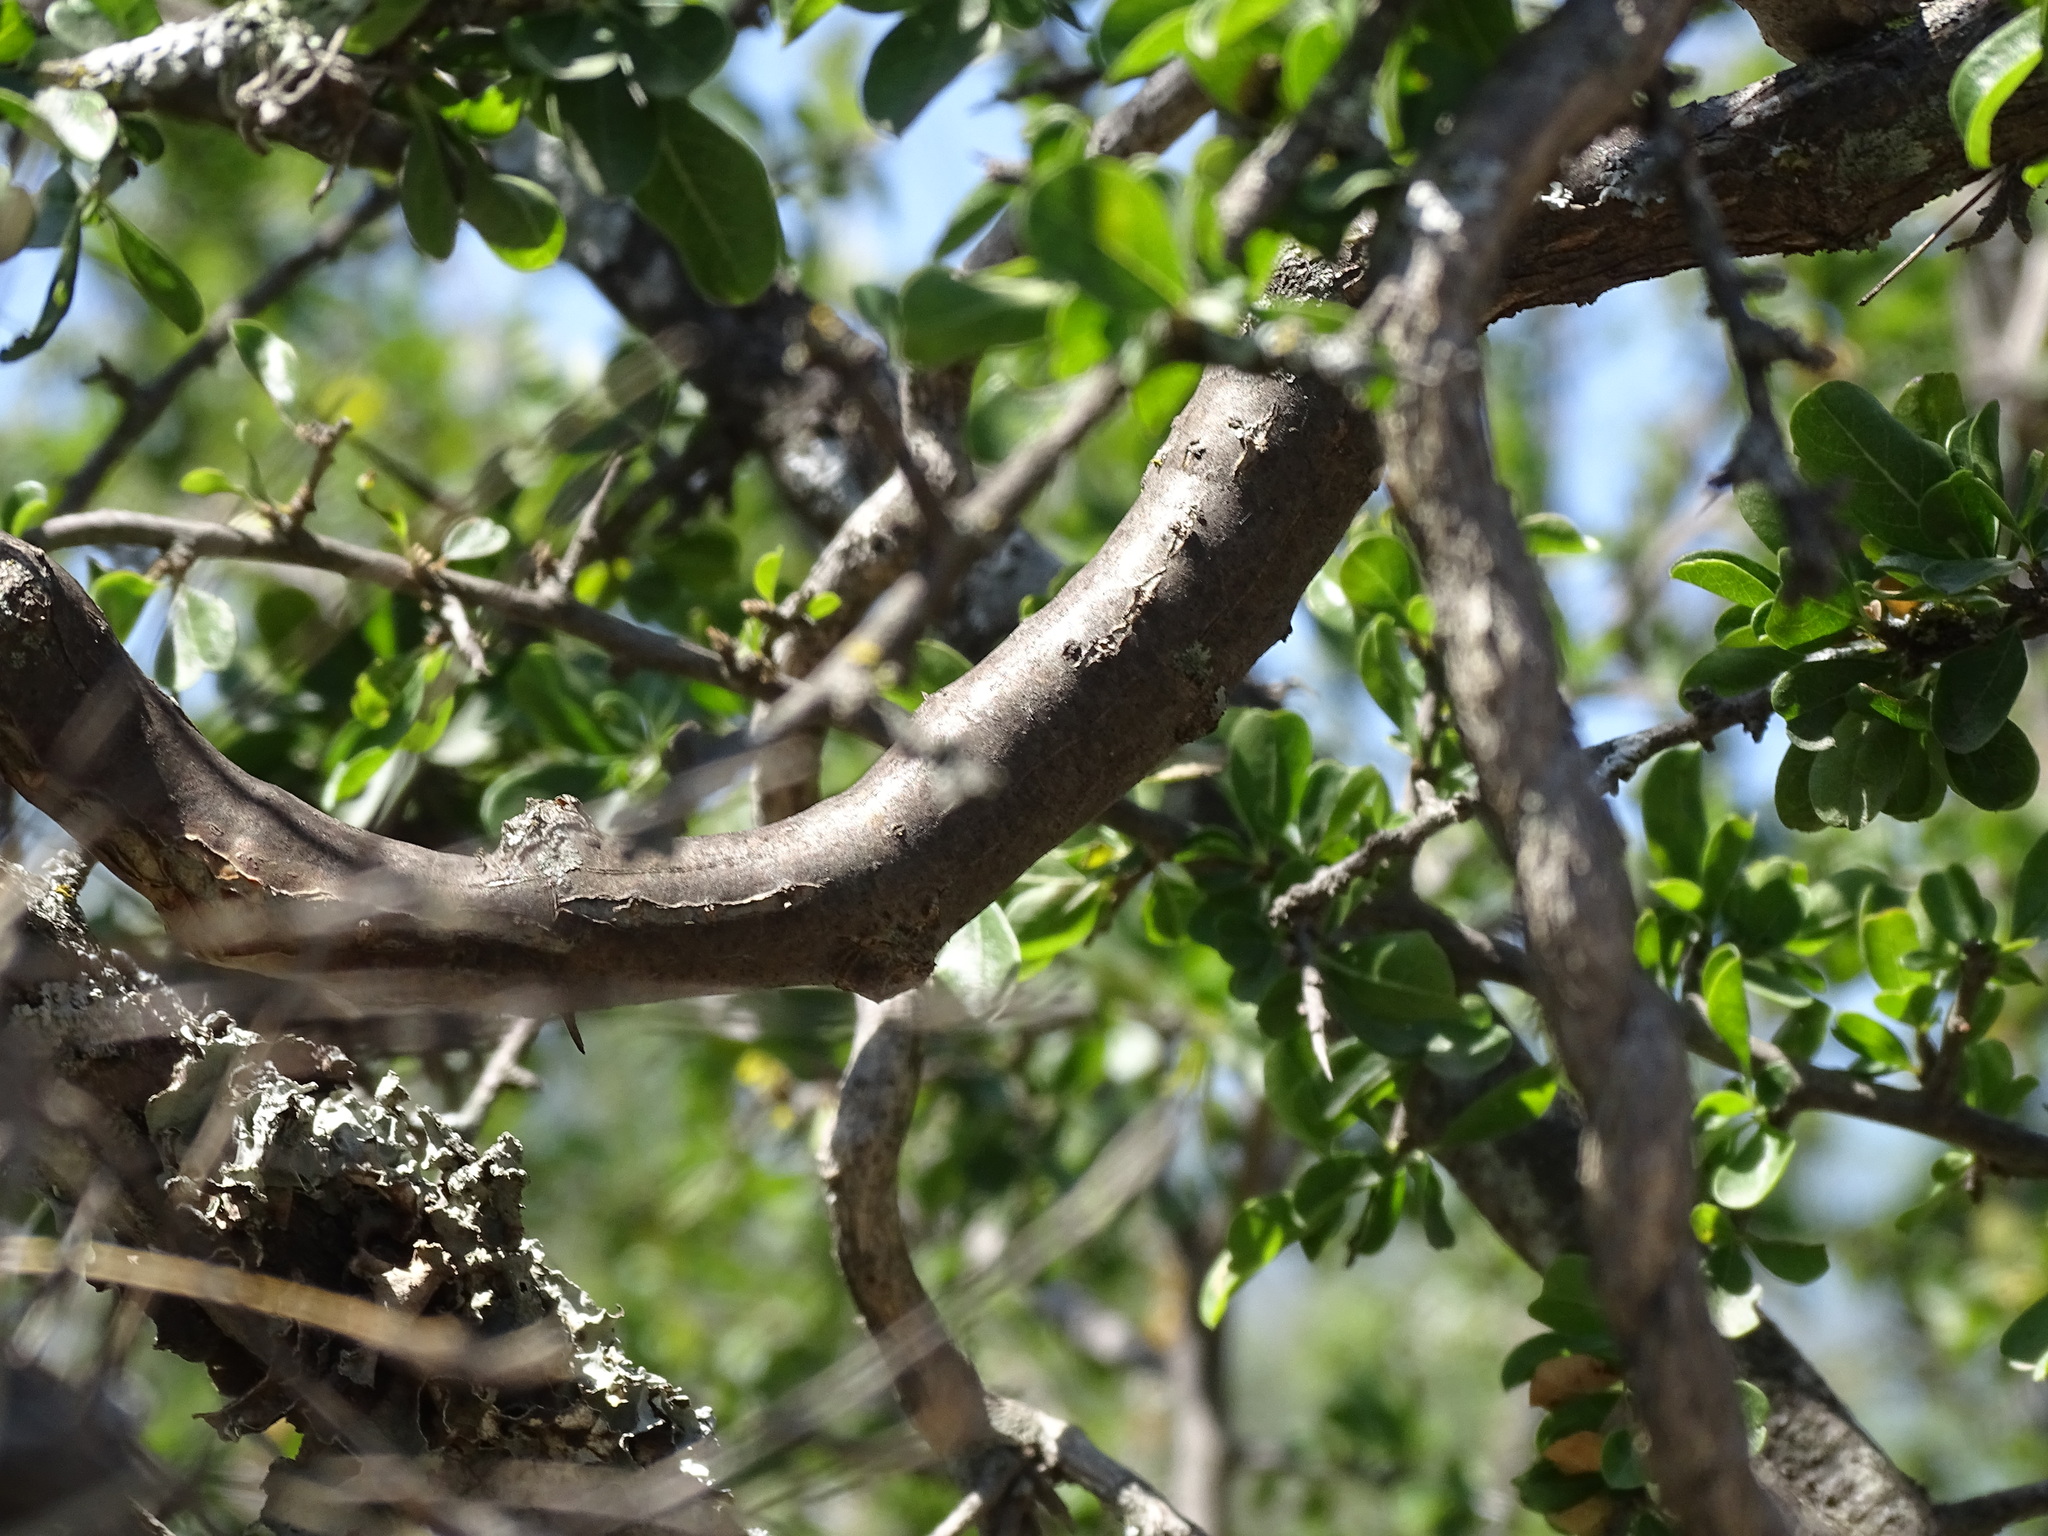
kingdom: Plantae
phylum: Tracheophyta
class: Magnoliopsida
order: Vitales
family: Vitaceae
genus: Cissus
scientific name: Cissus tiliacea
